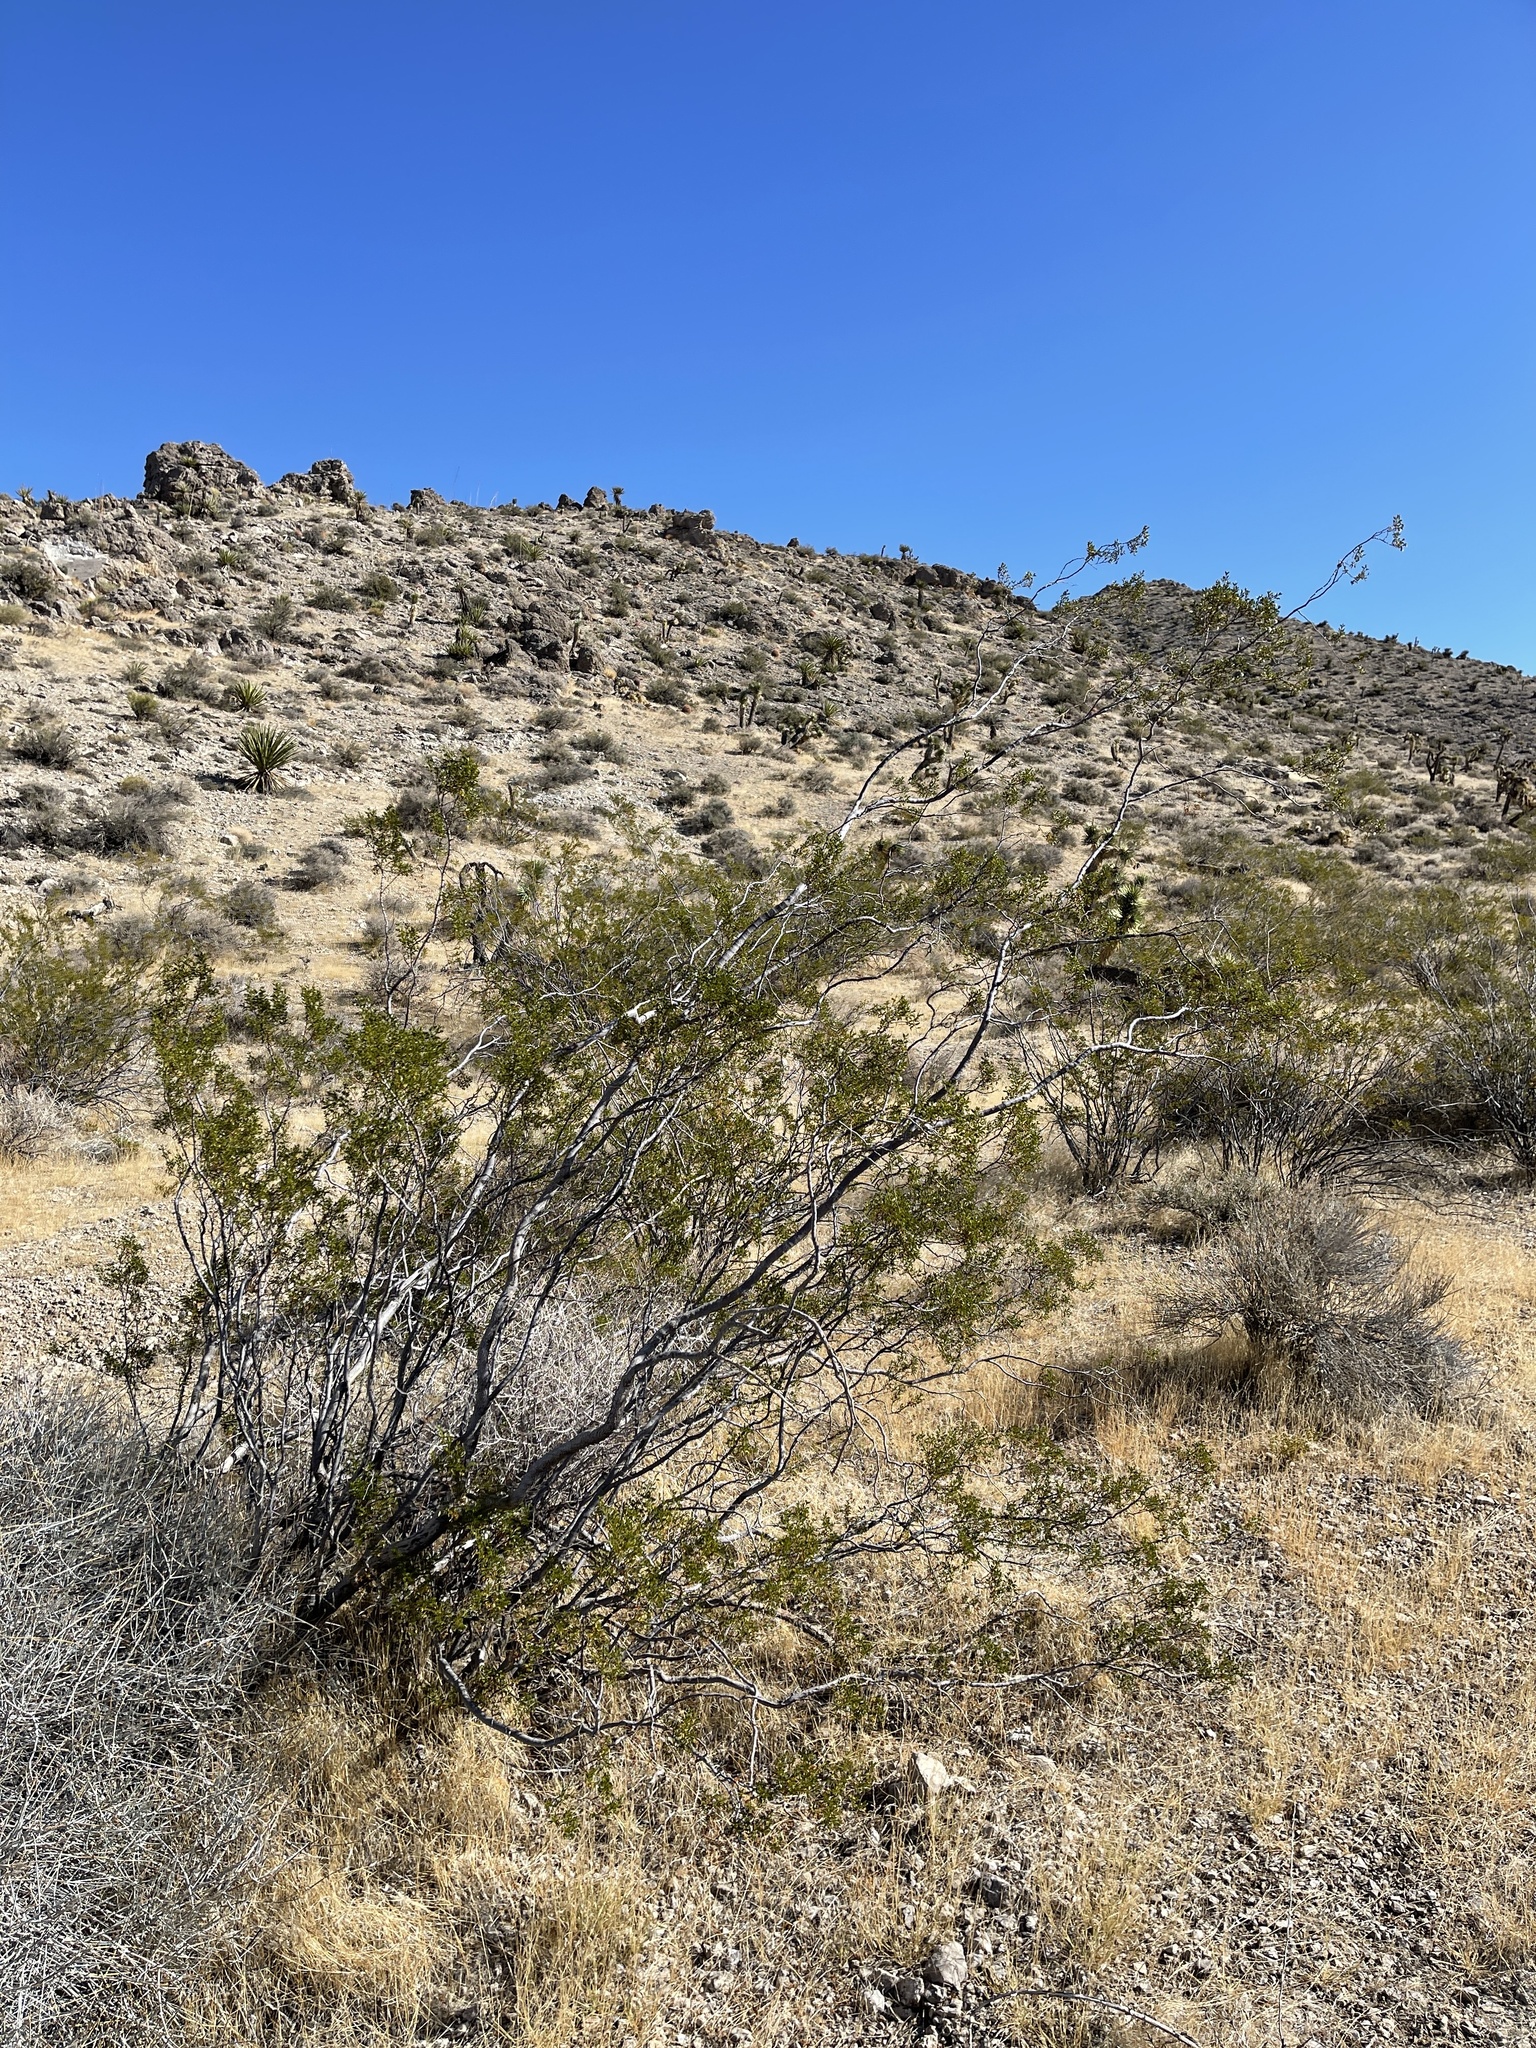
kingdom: Plantae
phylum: Tracheophyta
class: Magnoliopsida
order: Zygophyllales
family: Zygophyllaceae
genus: Larrea
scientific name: Larrea tridentata
